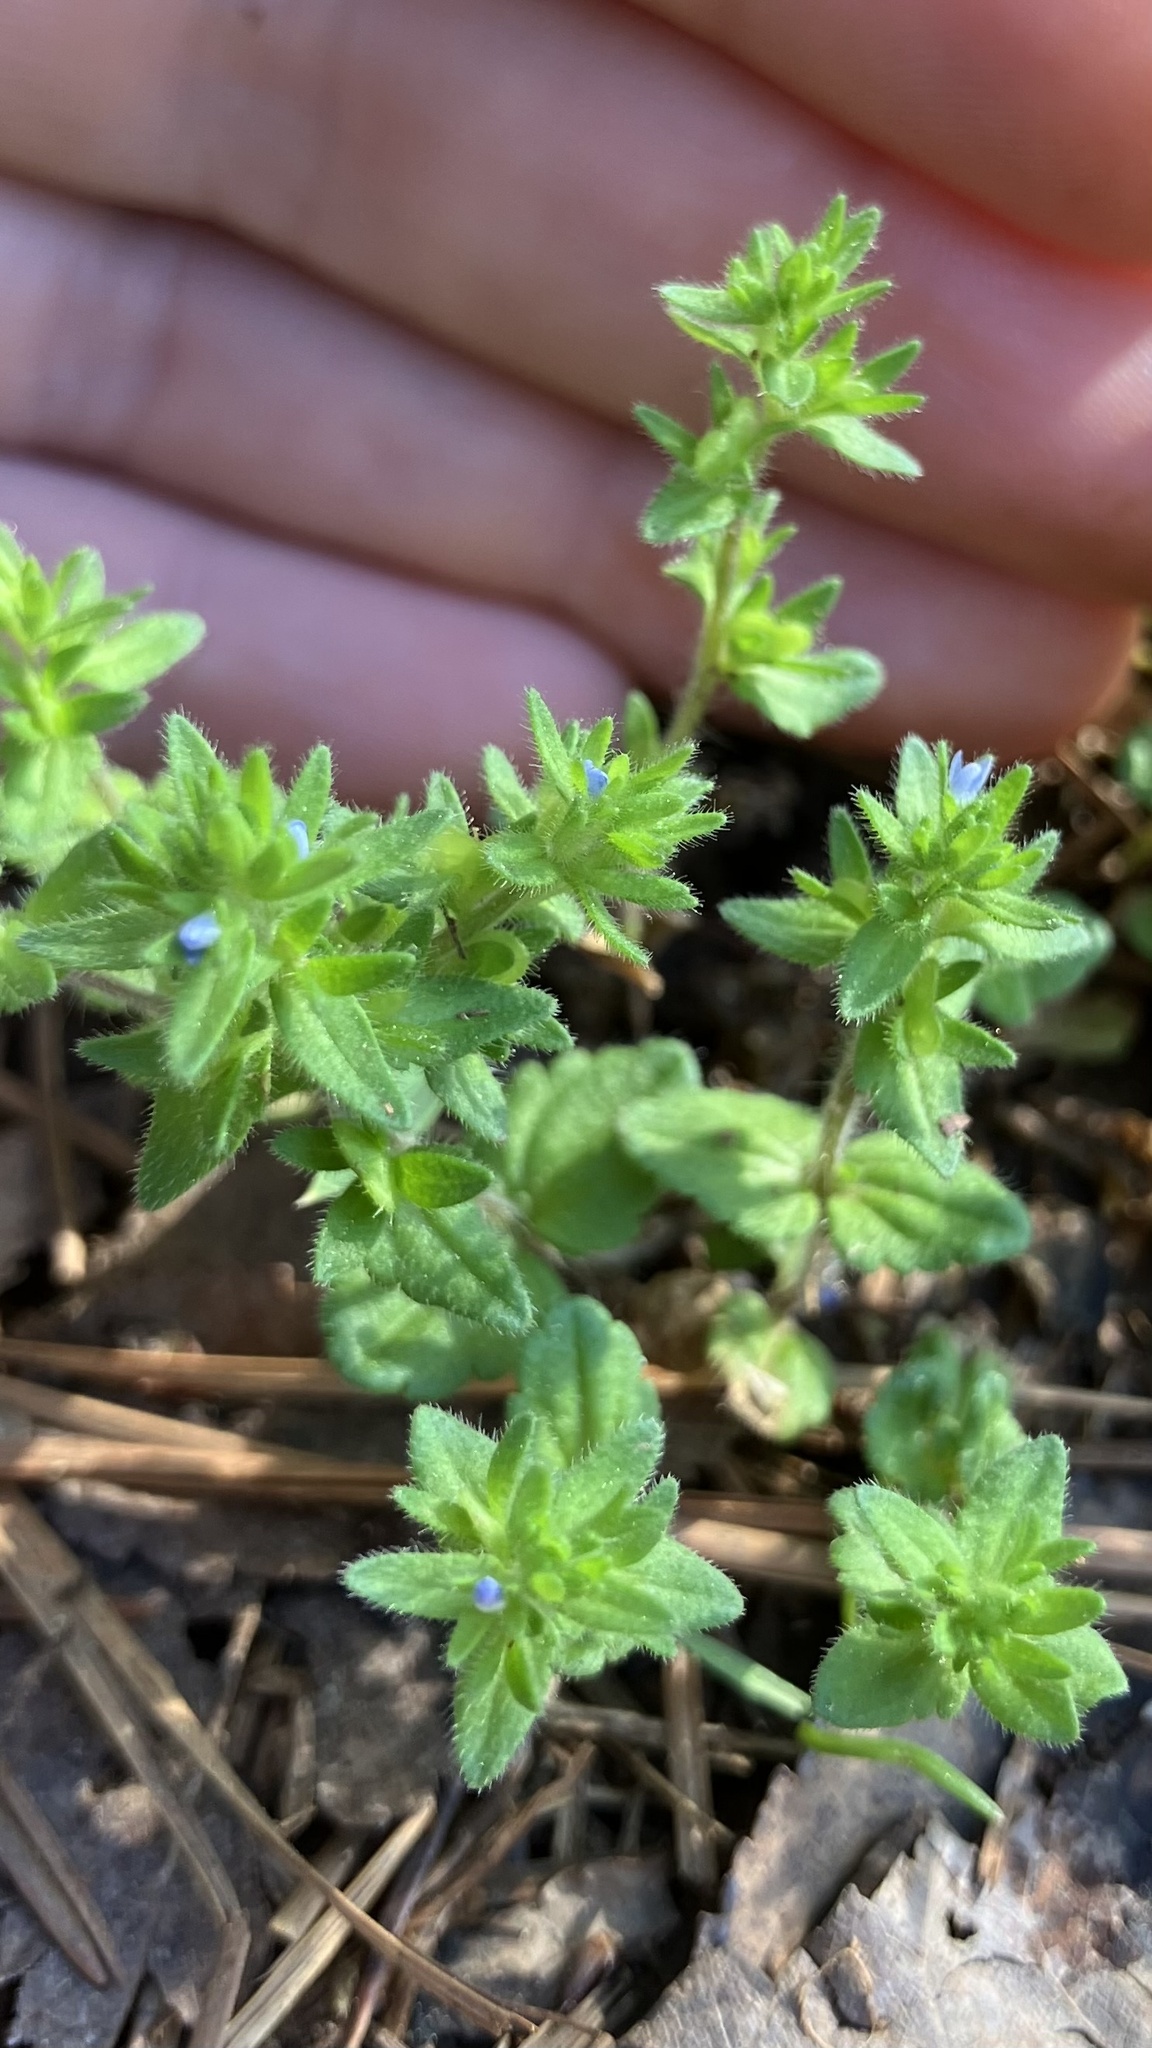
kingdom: Plantae
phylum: Tracheophyta
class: Magnoliopsida
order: Lamiales
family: Plantaginaceae
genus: Veronica
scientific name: Veronica arvensis
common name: Corn speedwell
